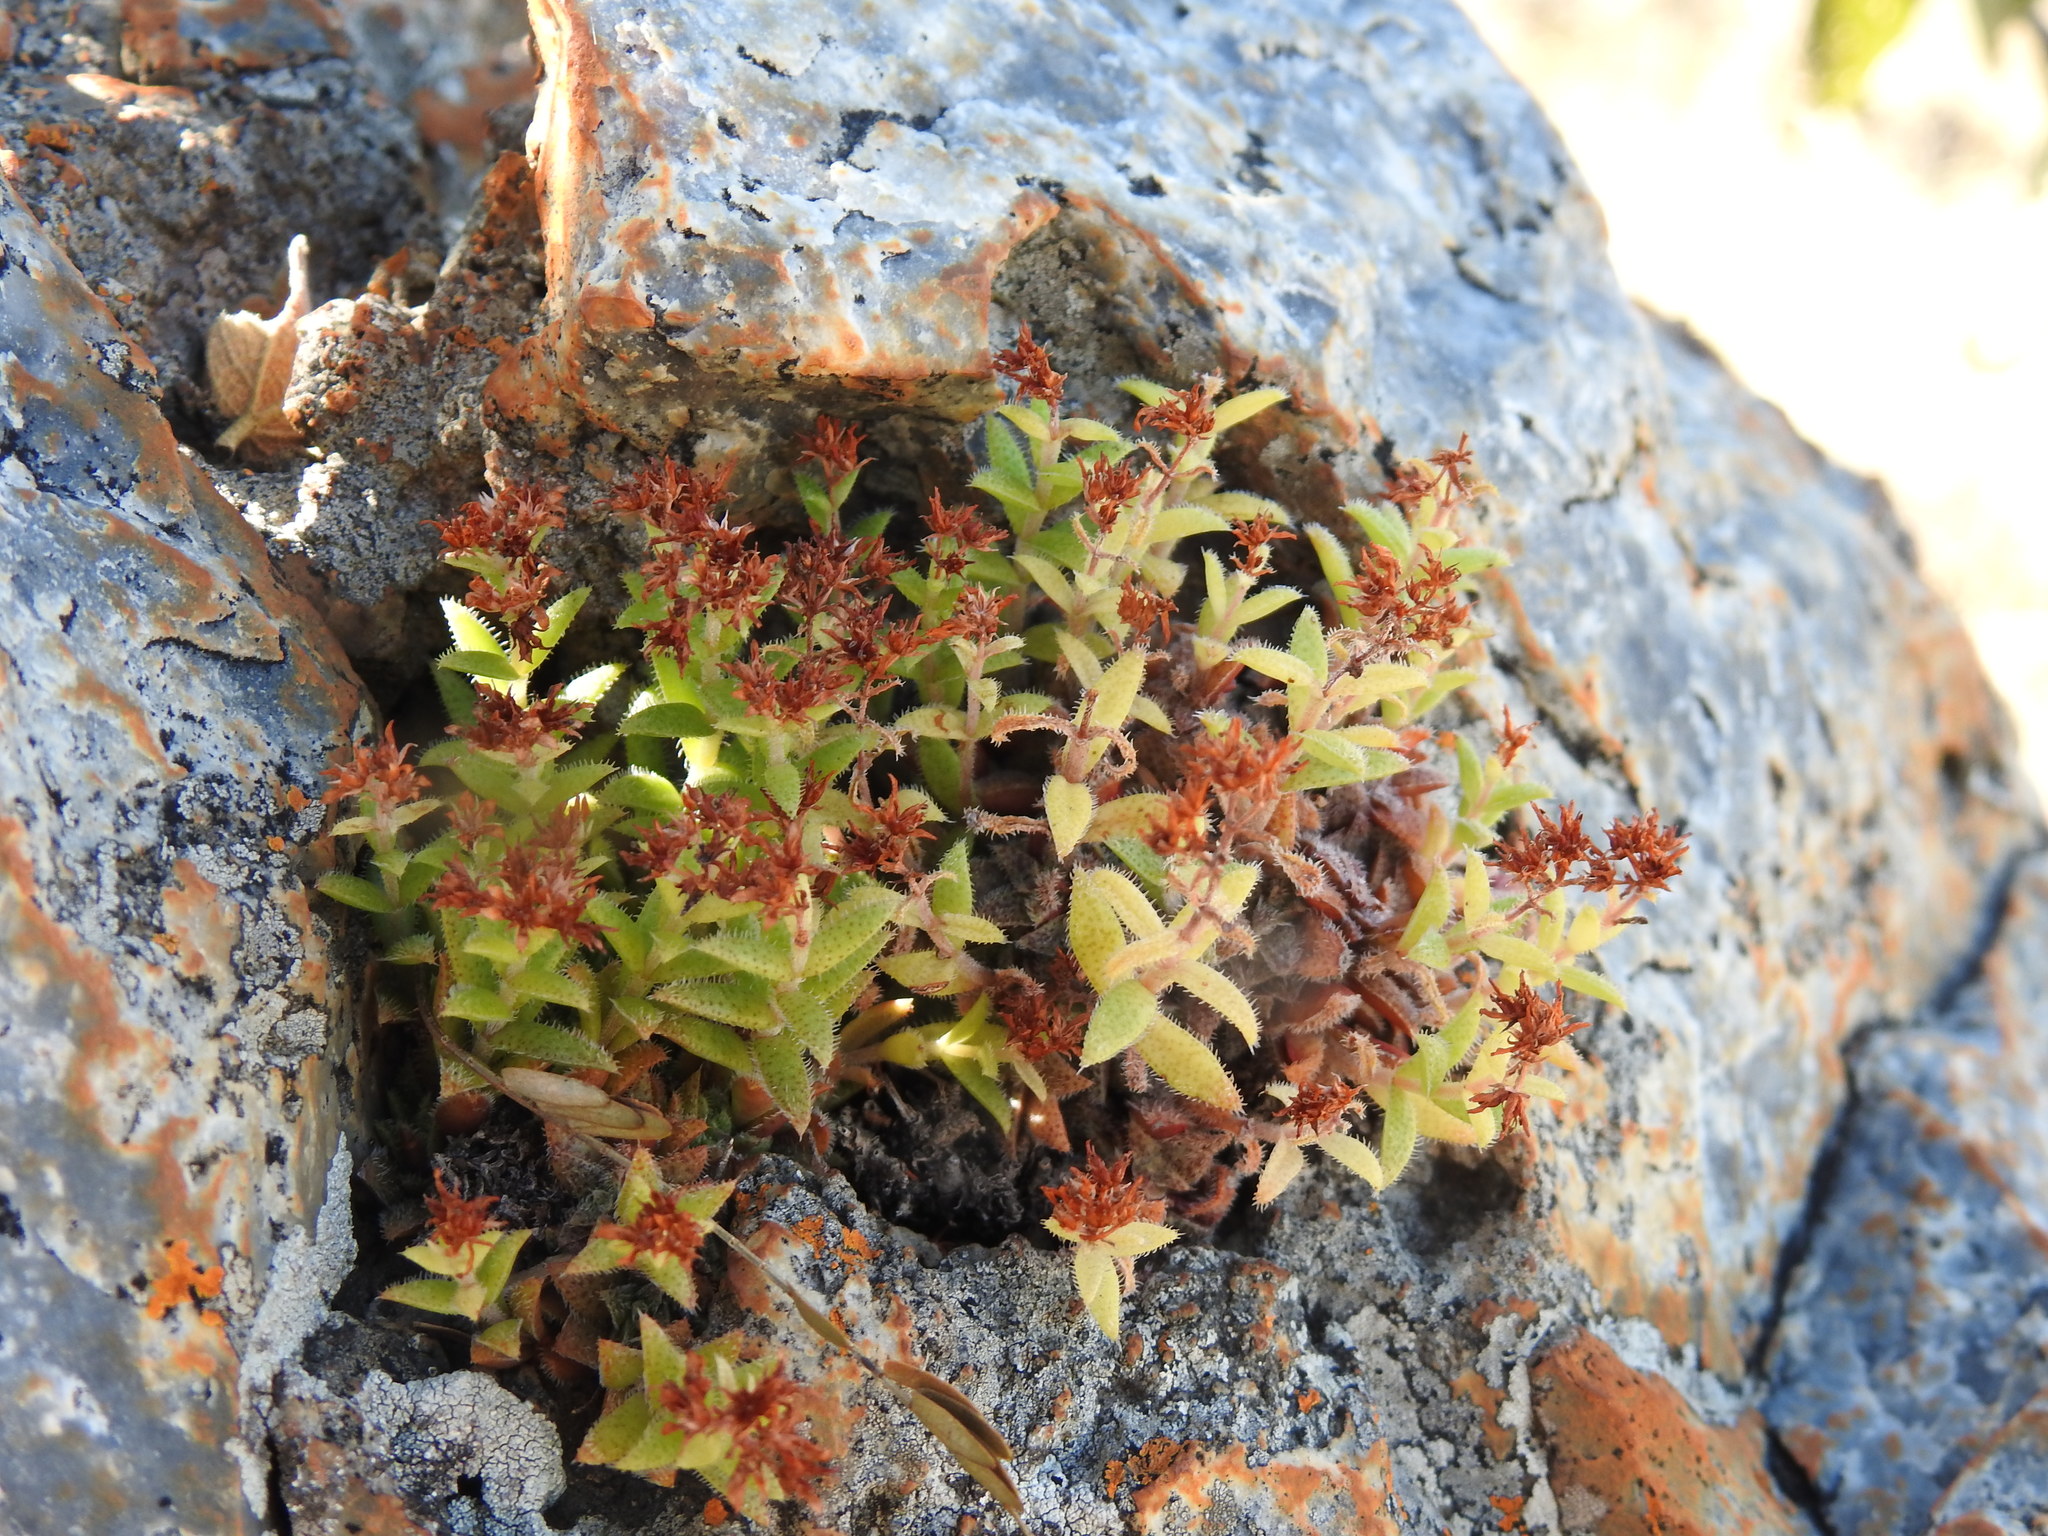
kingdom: Plantae
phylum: Tracheophyta
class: Magnoliopsida
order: Saxifragales
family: Crassulaceae
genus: Crassula
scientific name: Crassula setulosa
